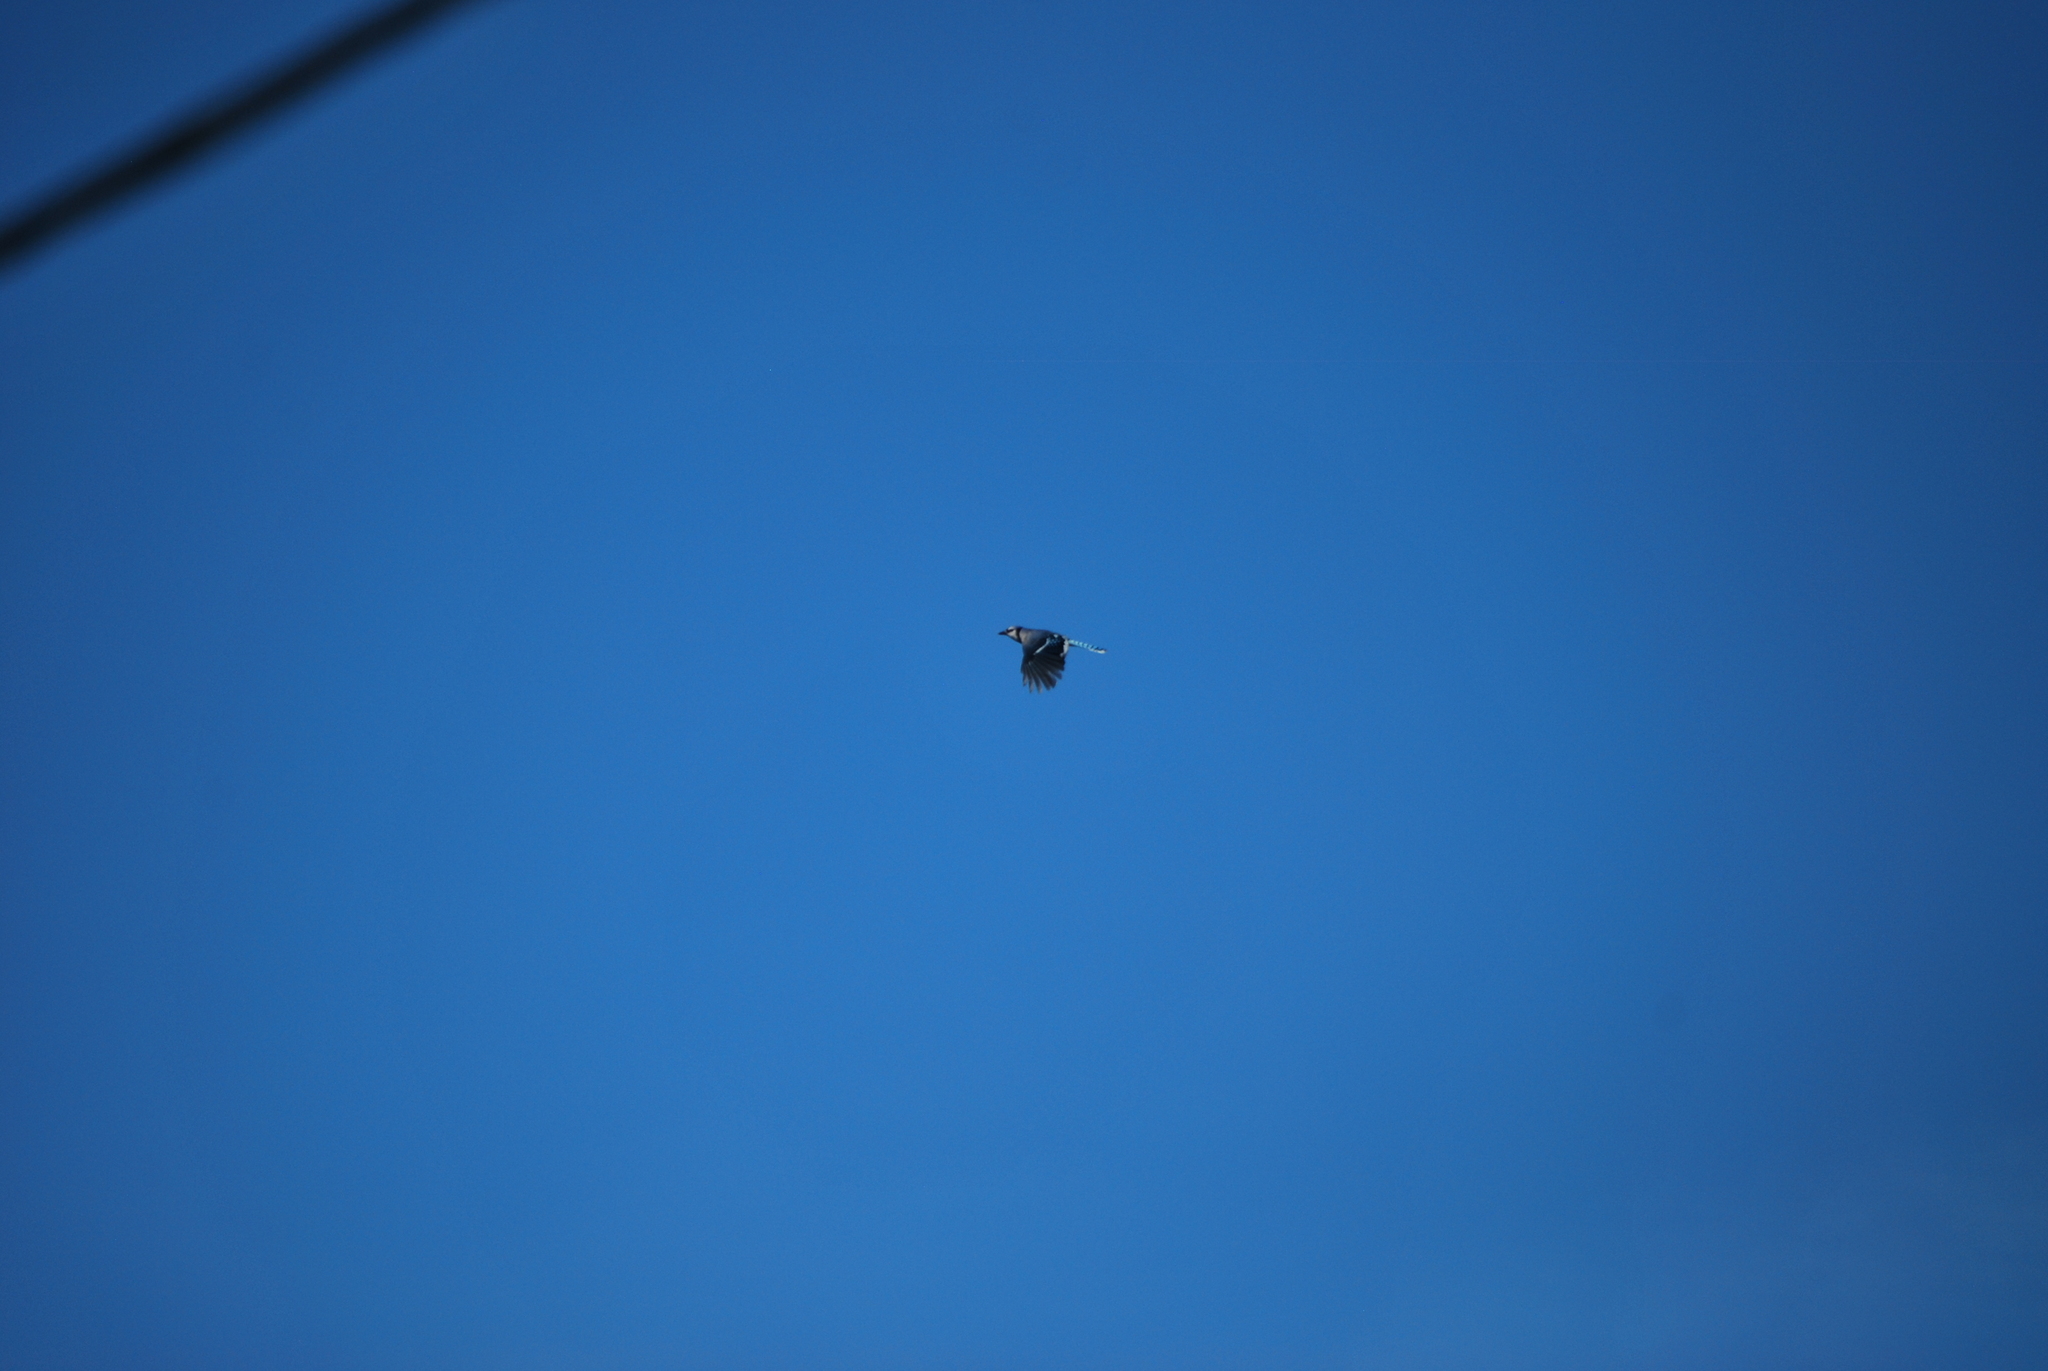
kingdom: Animalia
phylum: Chordata
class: Aves
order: Passeriformes
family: Corvidae
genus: Cyanocitta
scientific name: Cyanocitta cristata
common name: Blue jay
